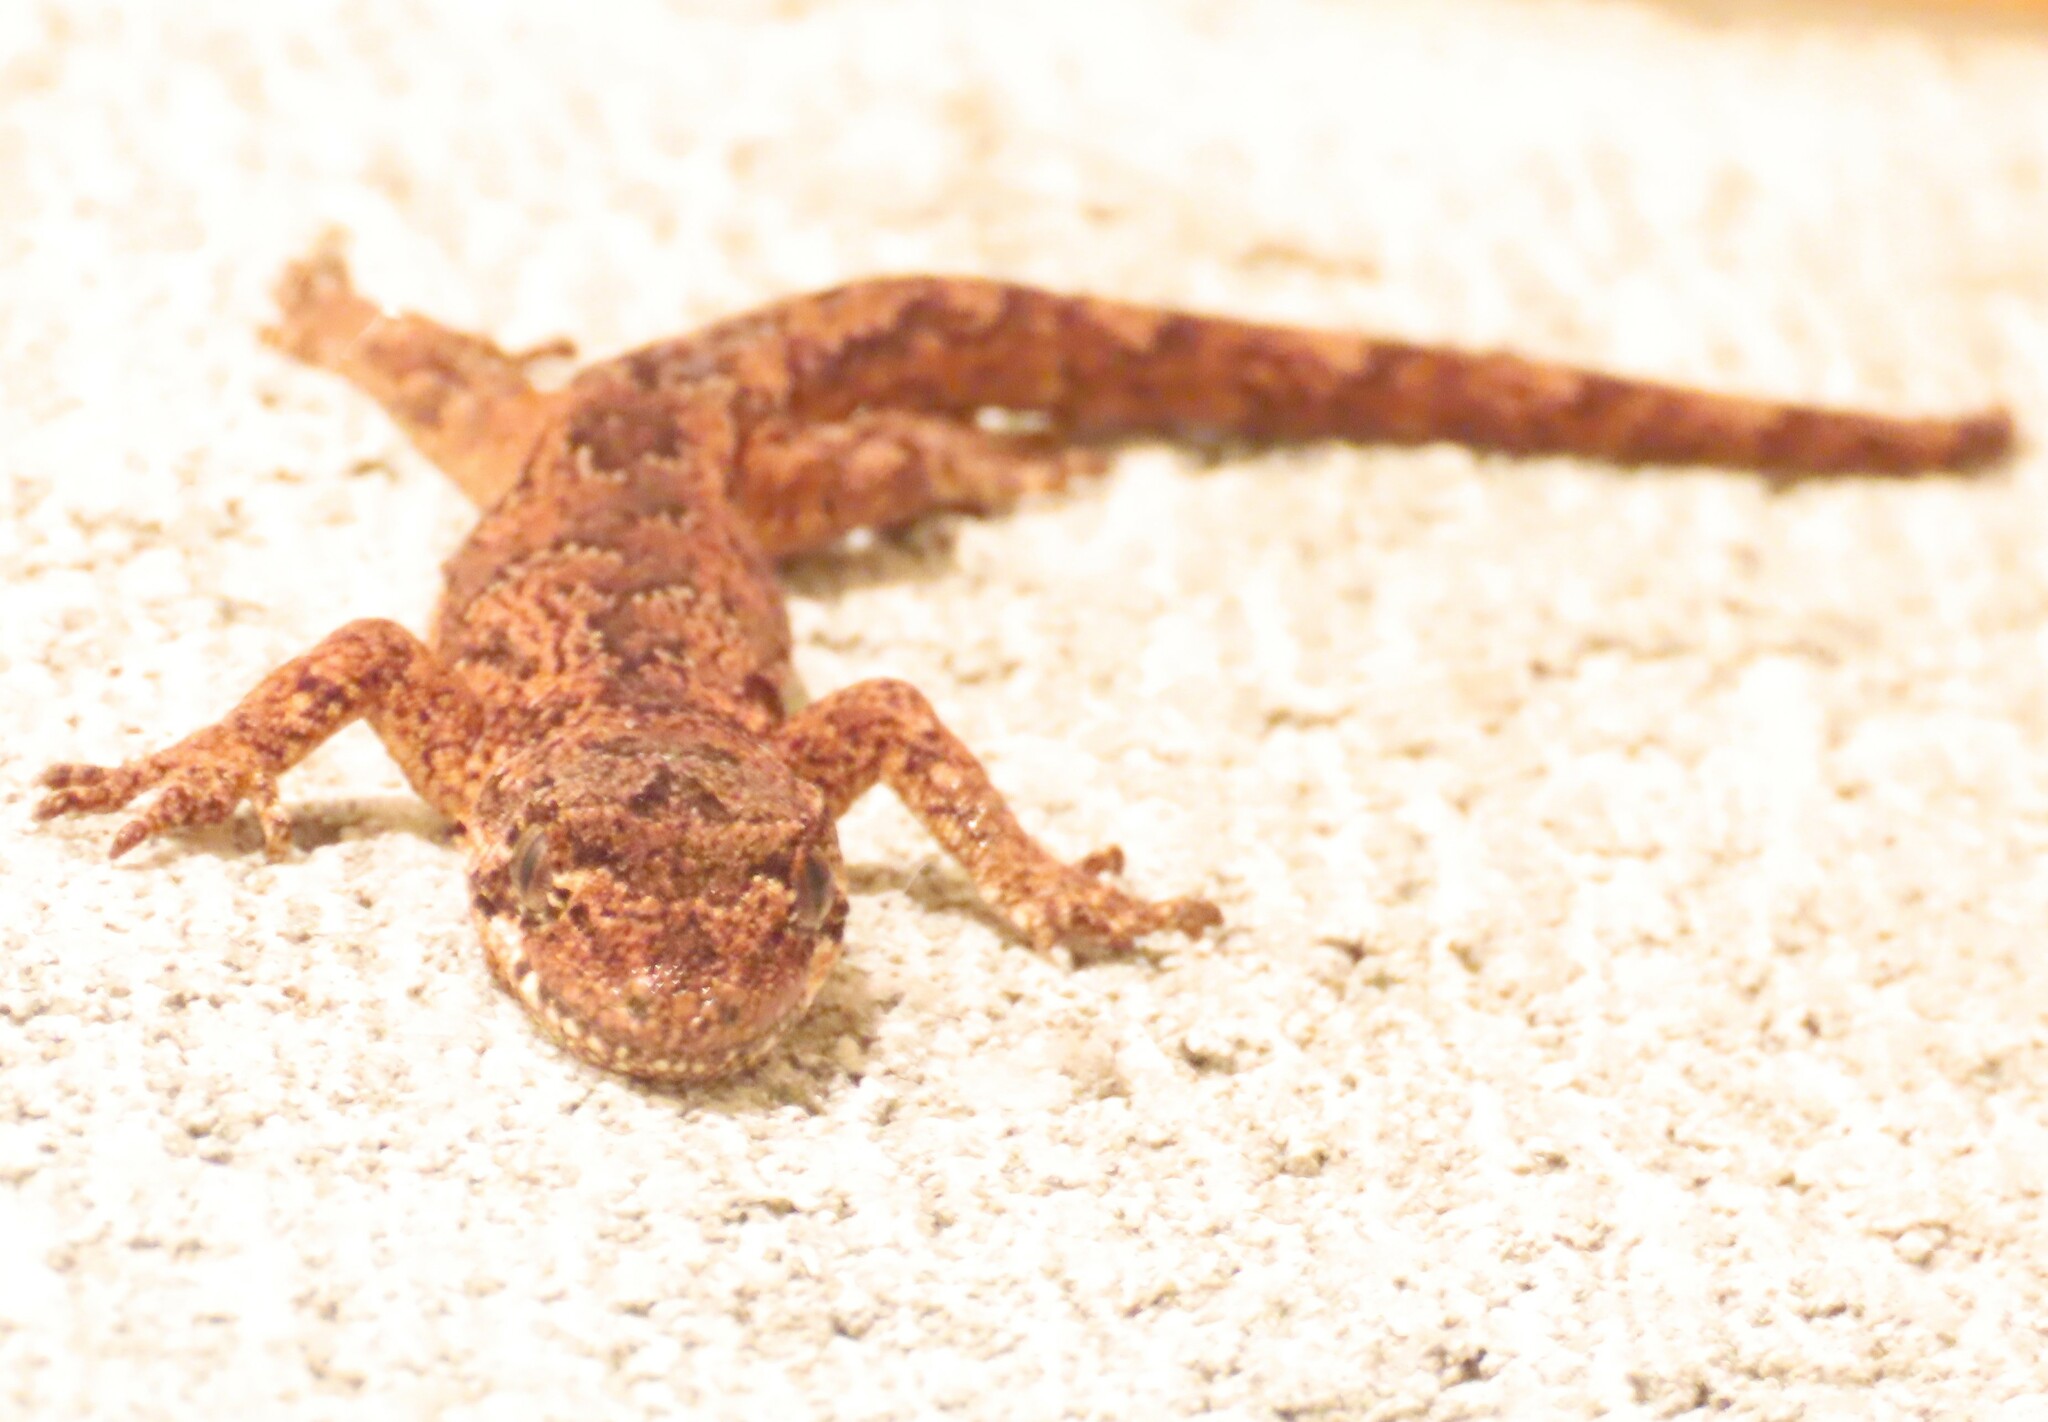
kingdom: Animalia
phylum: Chordata
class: Squamata
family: Diplodactylidae
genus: Mokopirirakau
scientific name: Mokopirirakau
